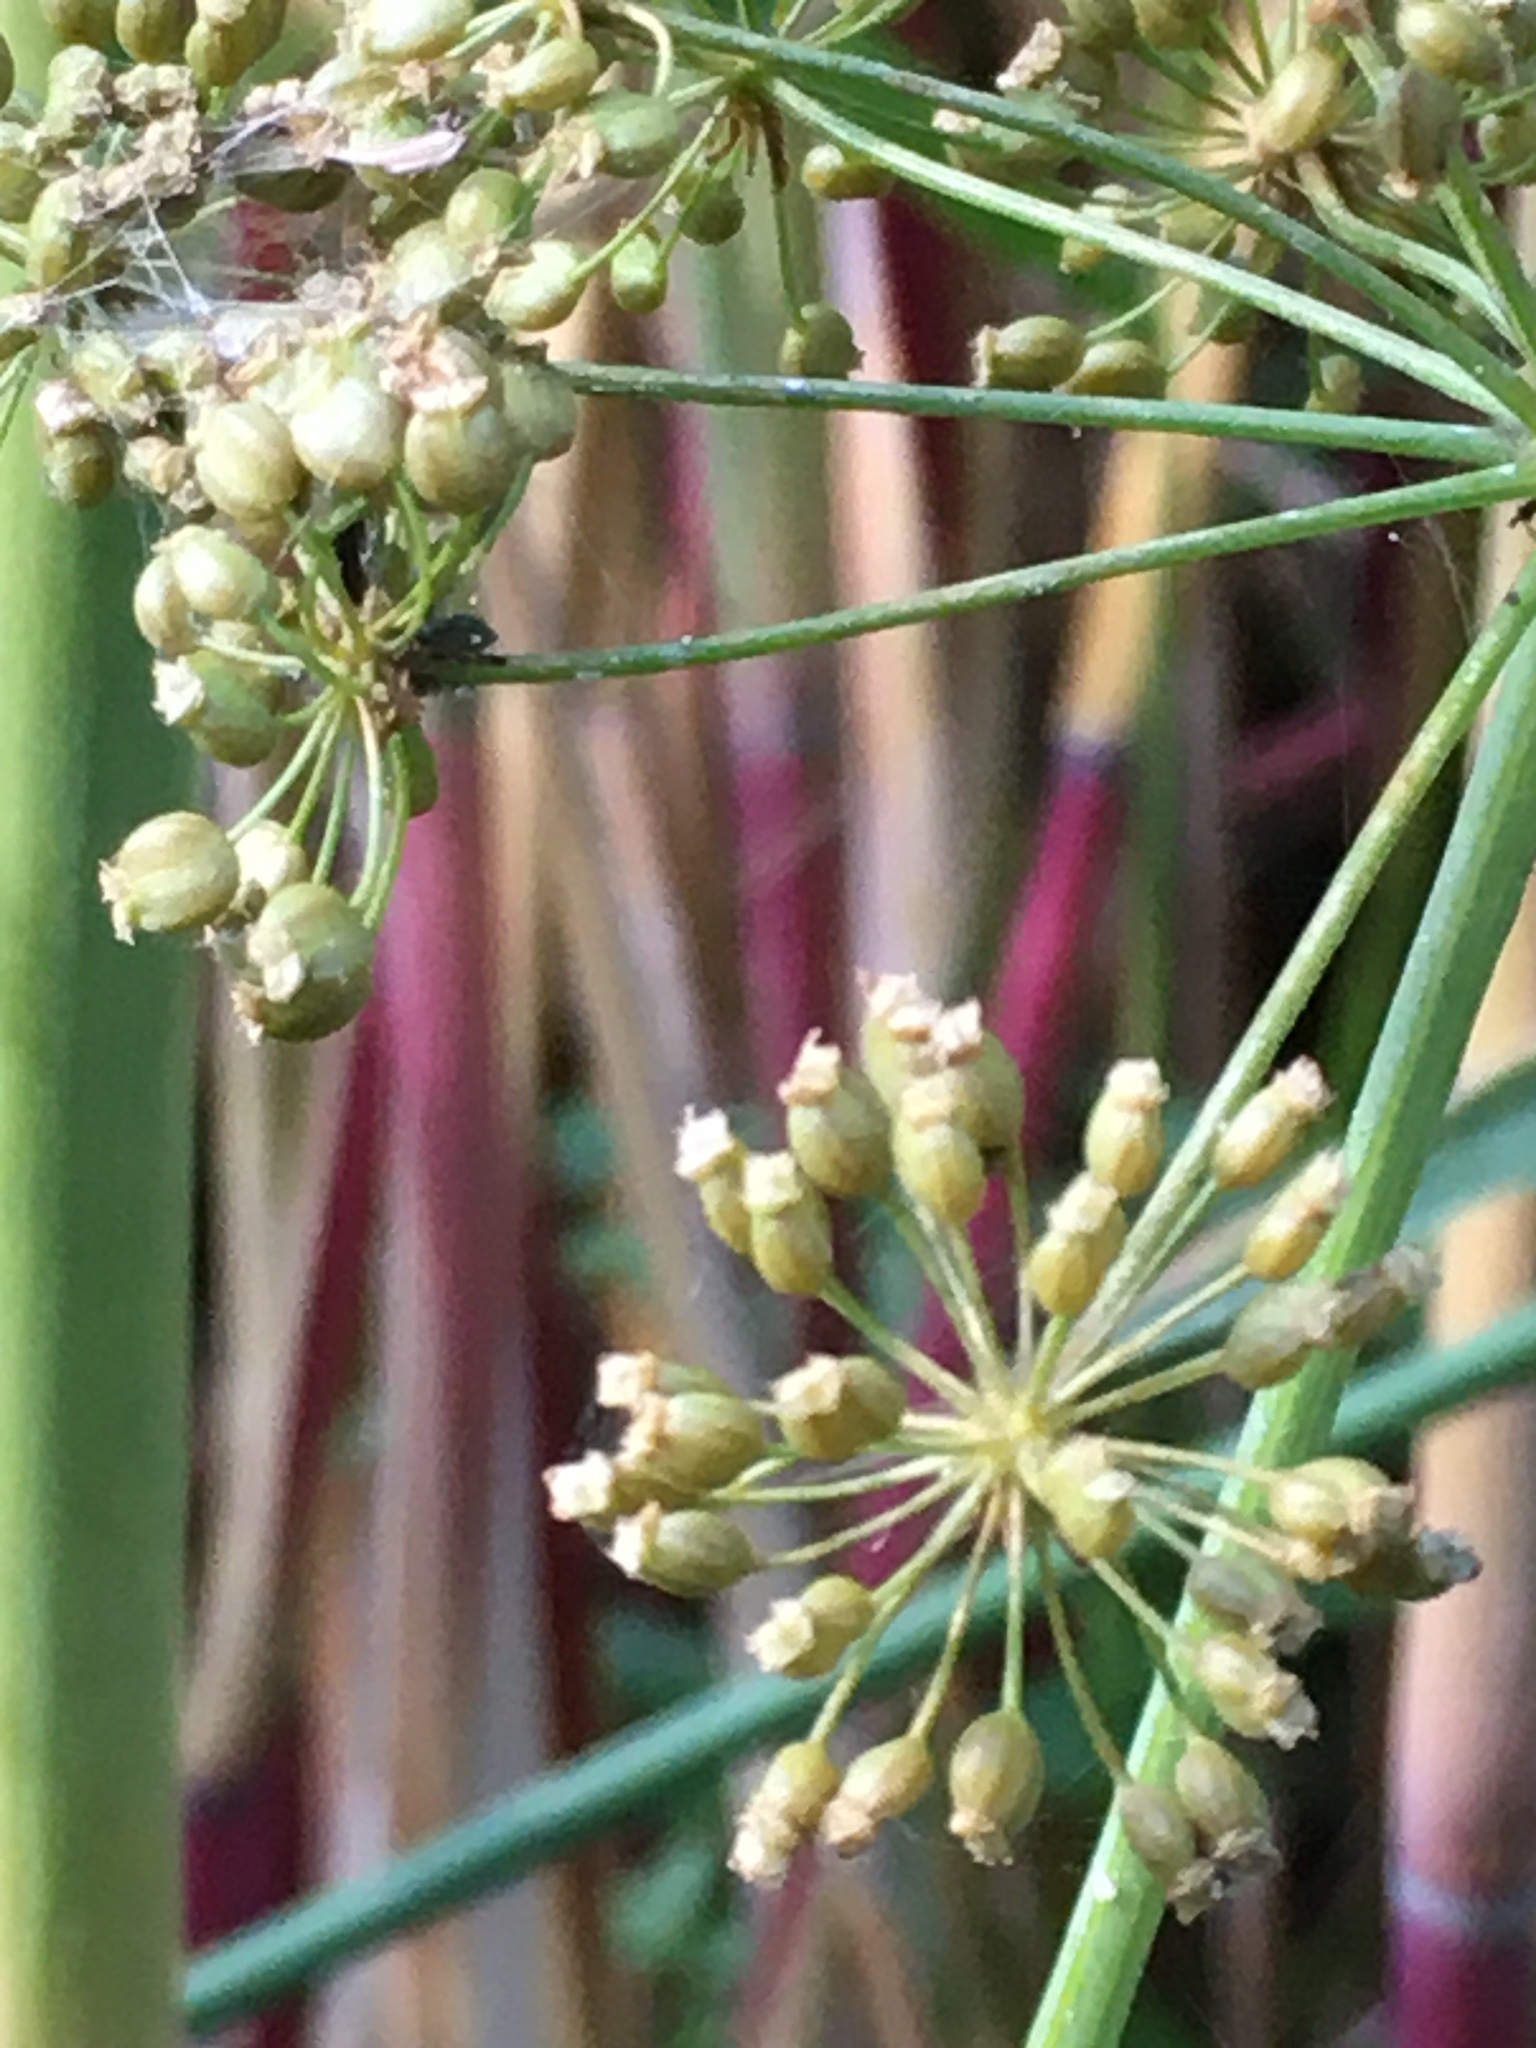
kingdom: Plantae
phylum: Tracheophyta
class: Magnoliopsida
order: Apiales
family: Apiaceae
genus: Cicuta
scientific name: Cicuta maculata
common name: Spotted cowbane
